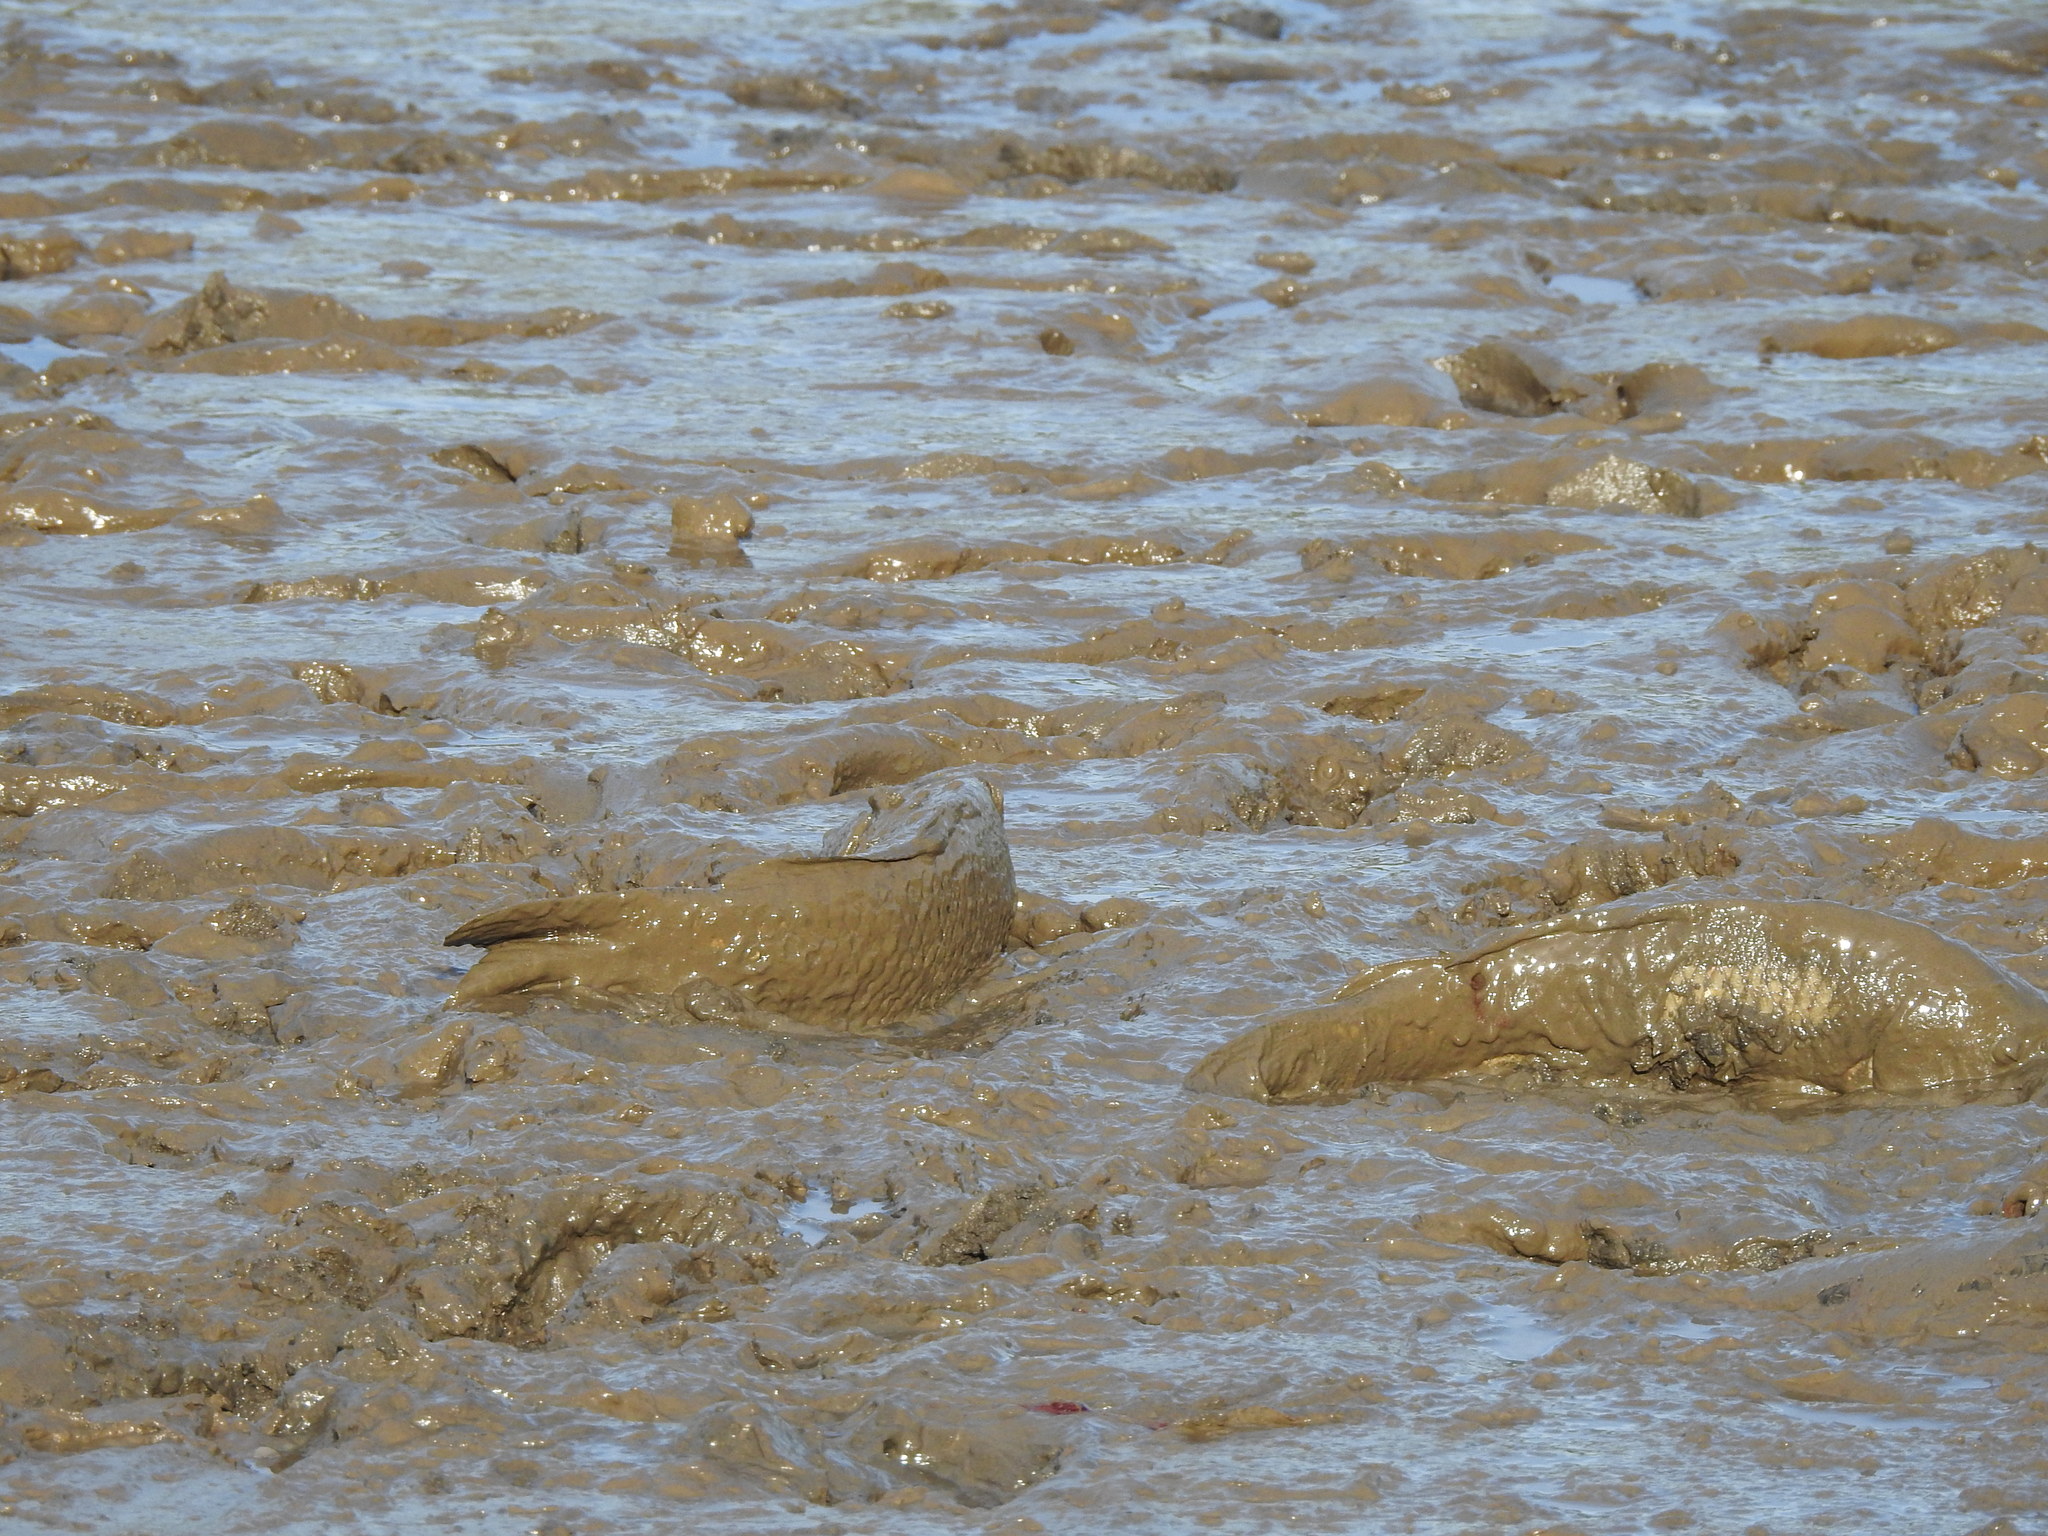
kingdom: Animalia
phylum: Chordata
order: Cypriniformes
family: Cyprinidae
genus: Cyprinus
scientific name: Cyprinus carpio
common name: Common carp
